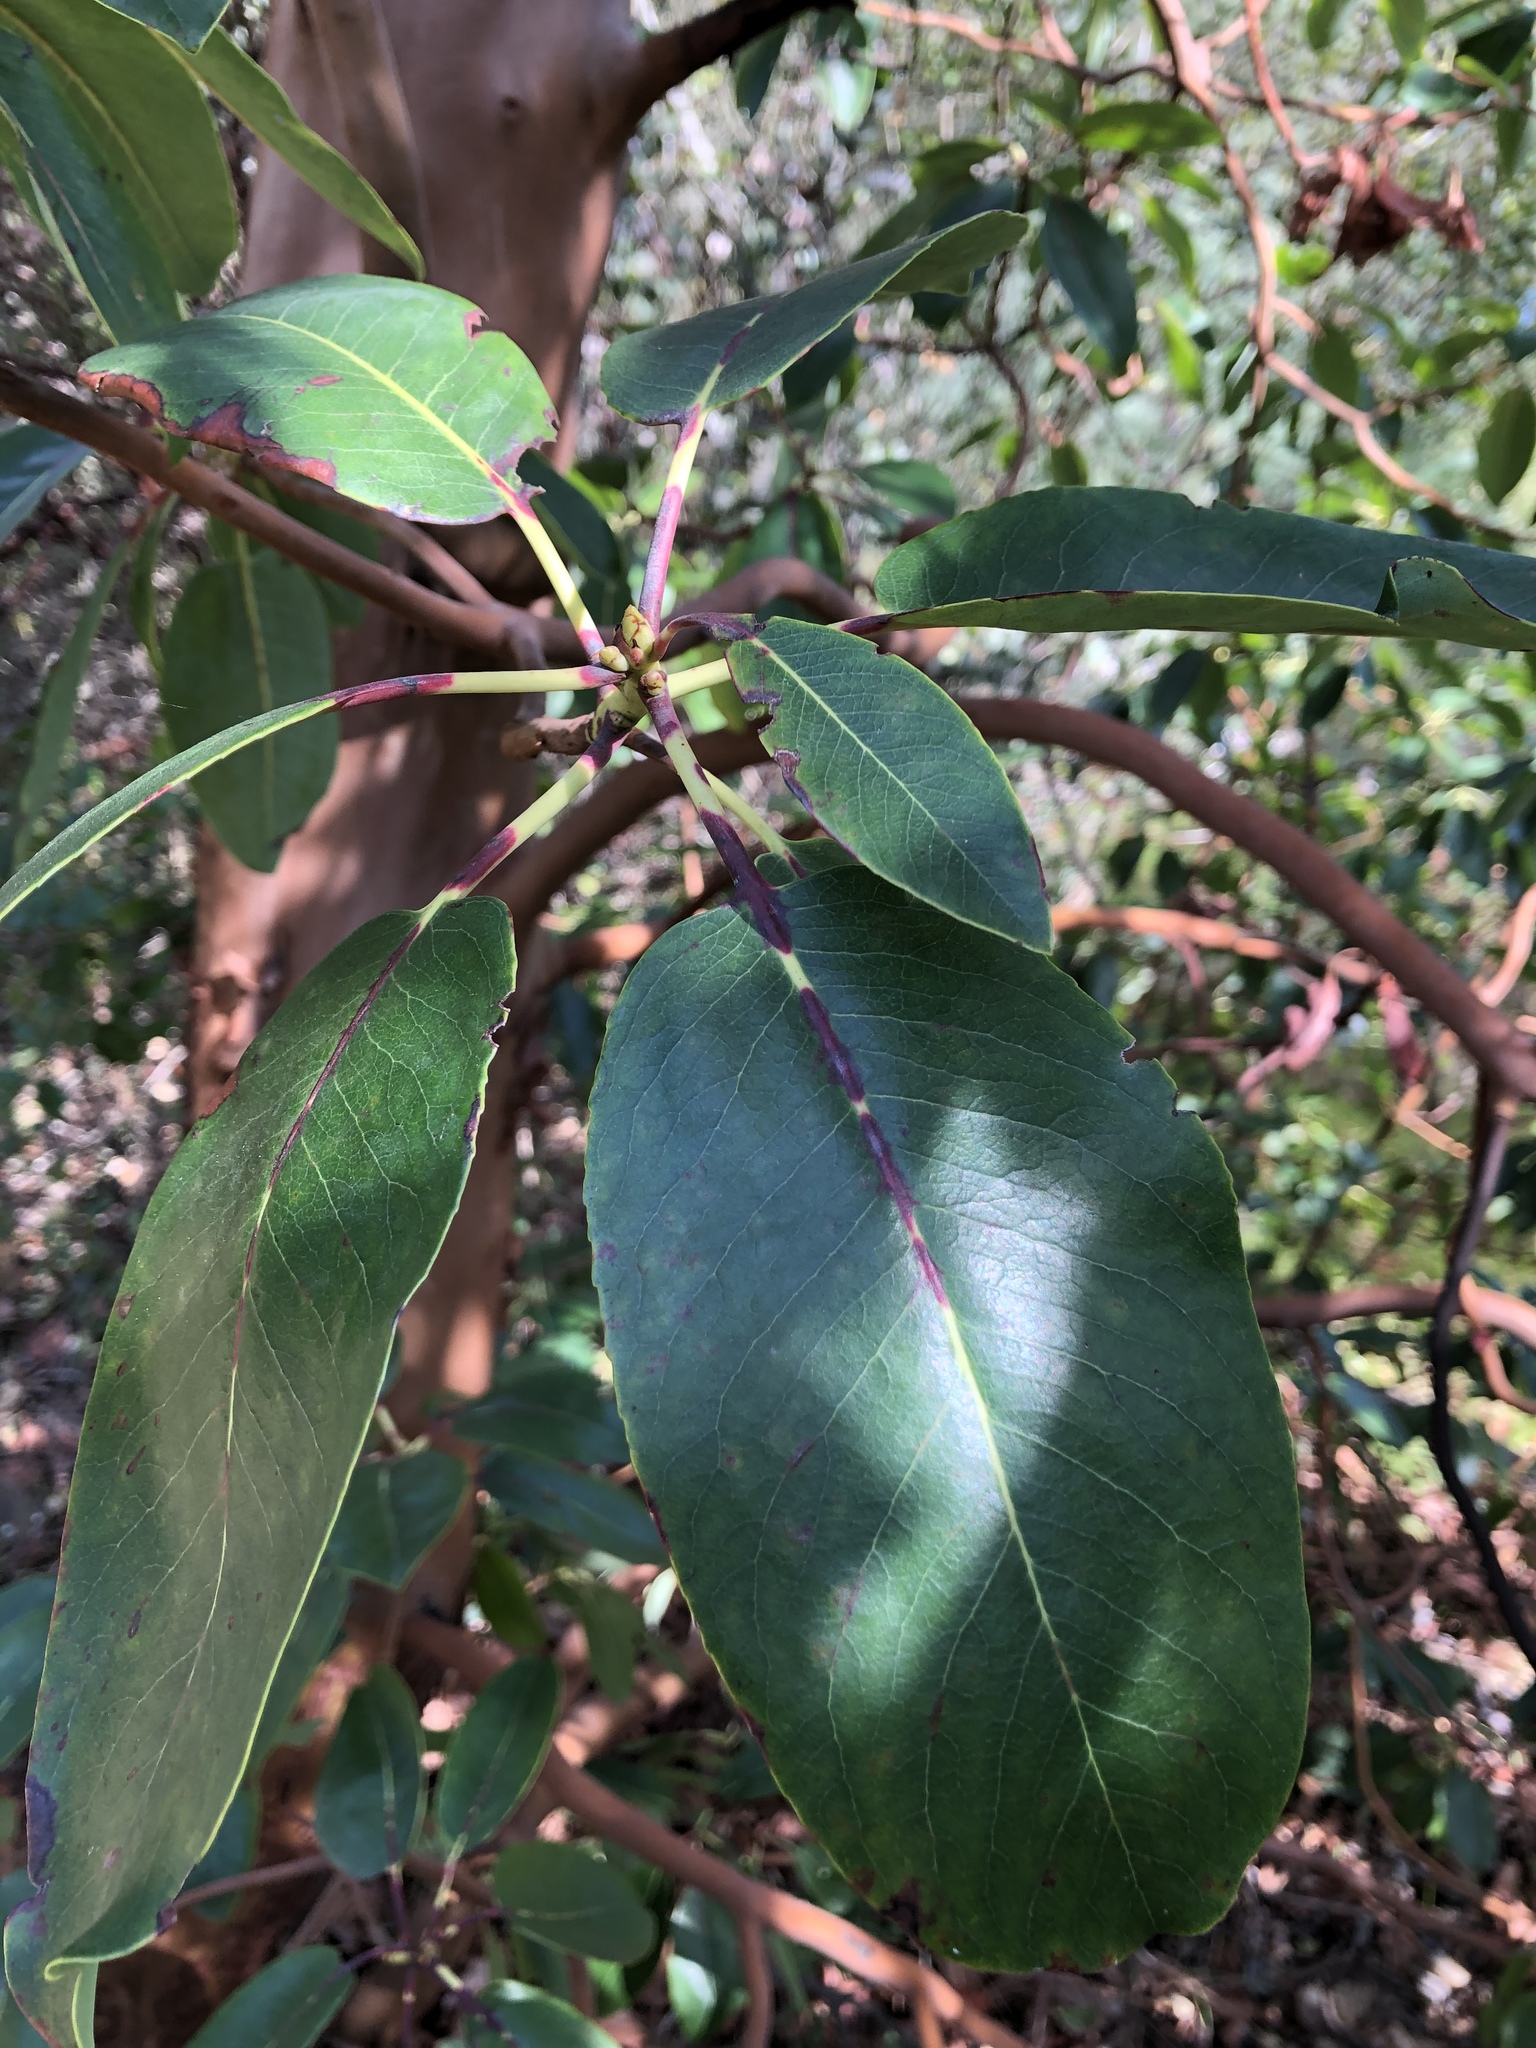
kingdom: Plantae
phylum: Tracheophyta
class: Magnoliopsida
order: Ericales
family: Ericaceae
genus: Arbutus
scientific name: Arbutus menziesii
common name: Pacific madrone
